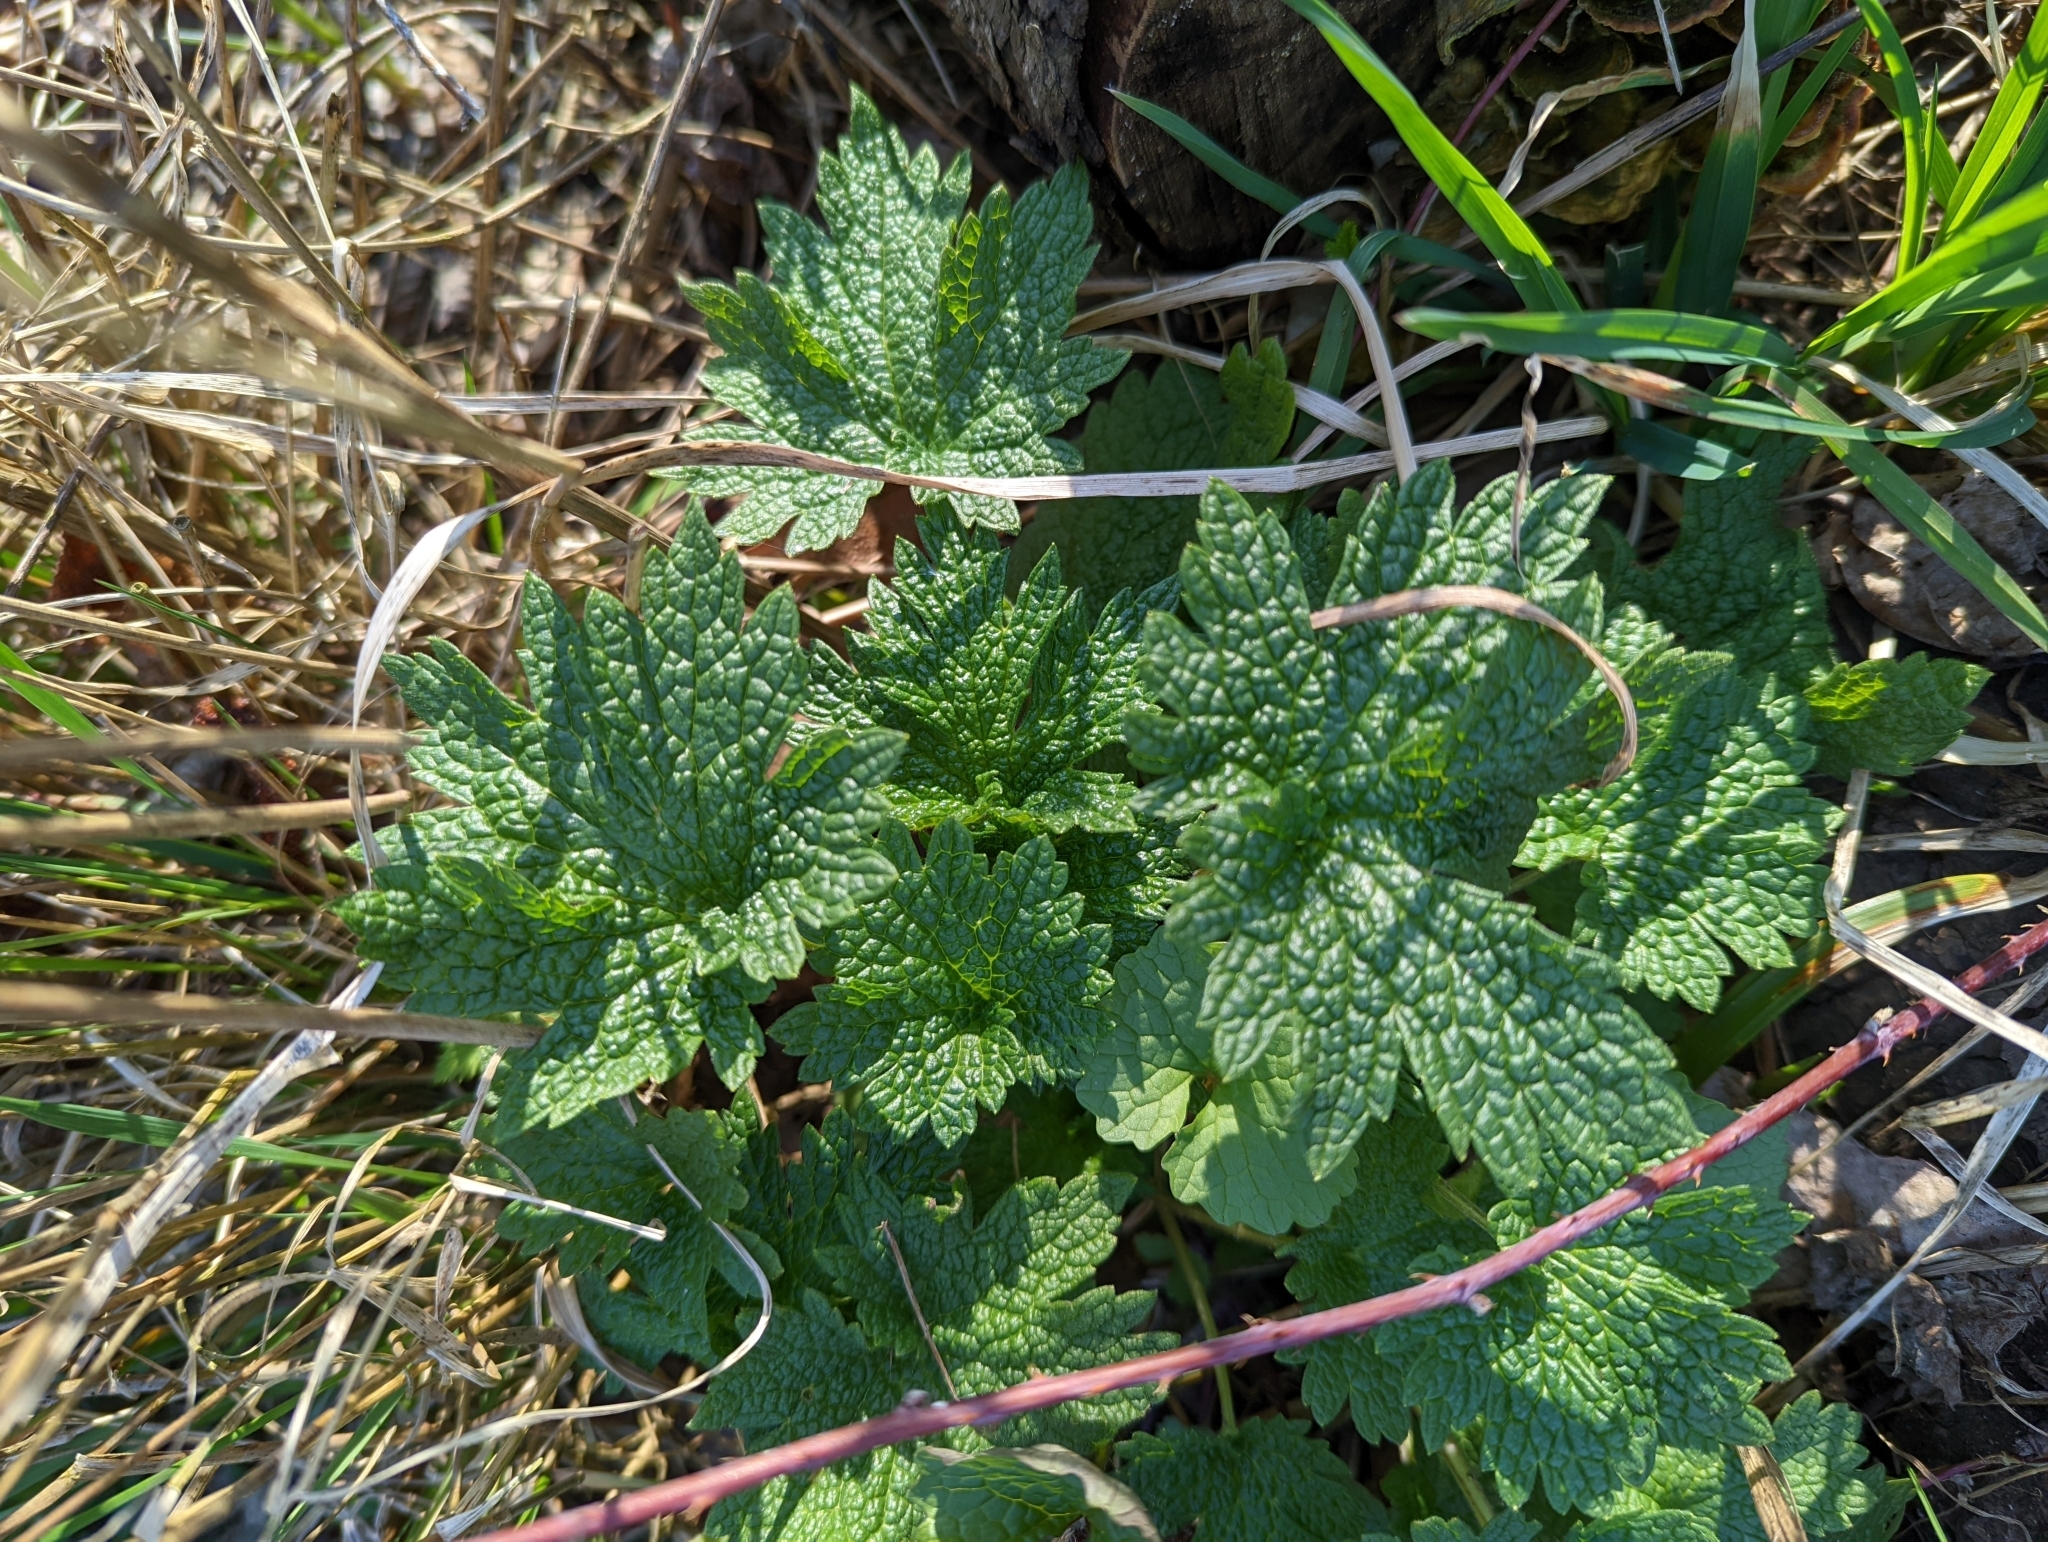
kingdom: Plantae
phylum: Tracheophyta
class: Magnoliopsida
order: Lamiales
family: Lamiaceae
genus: Leonurus
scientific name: Leonurus cardiaca
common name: Motherwort
